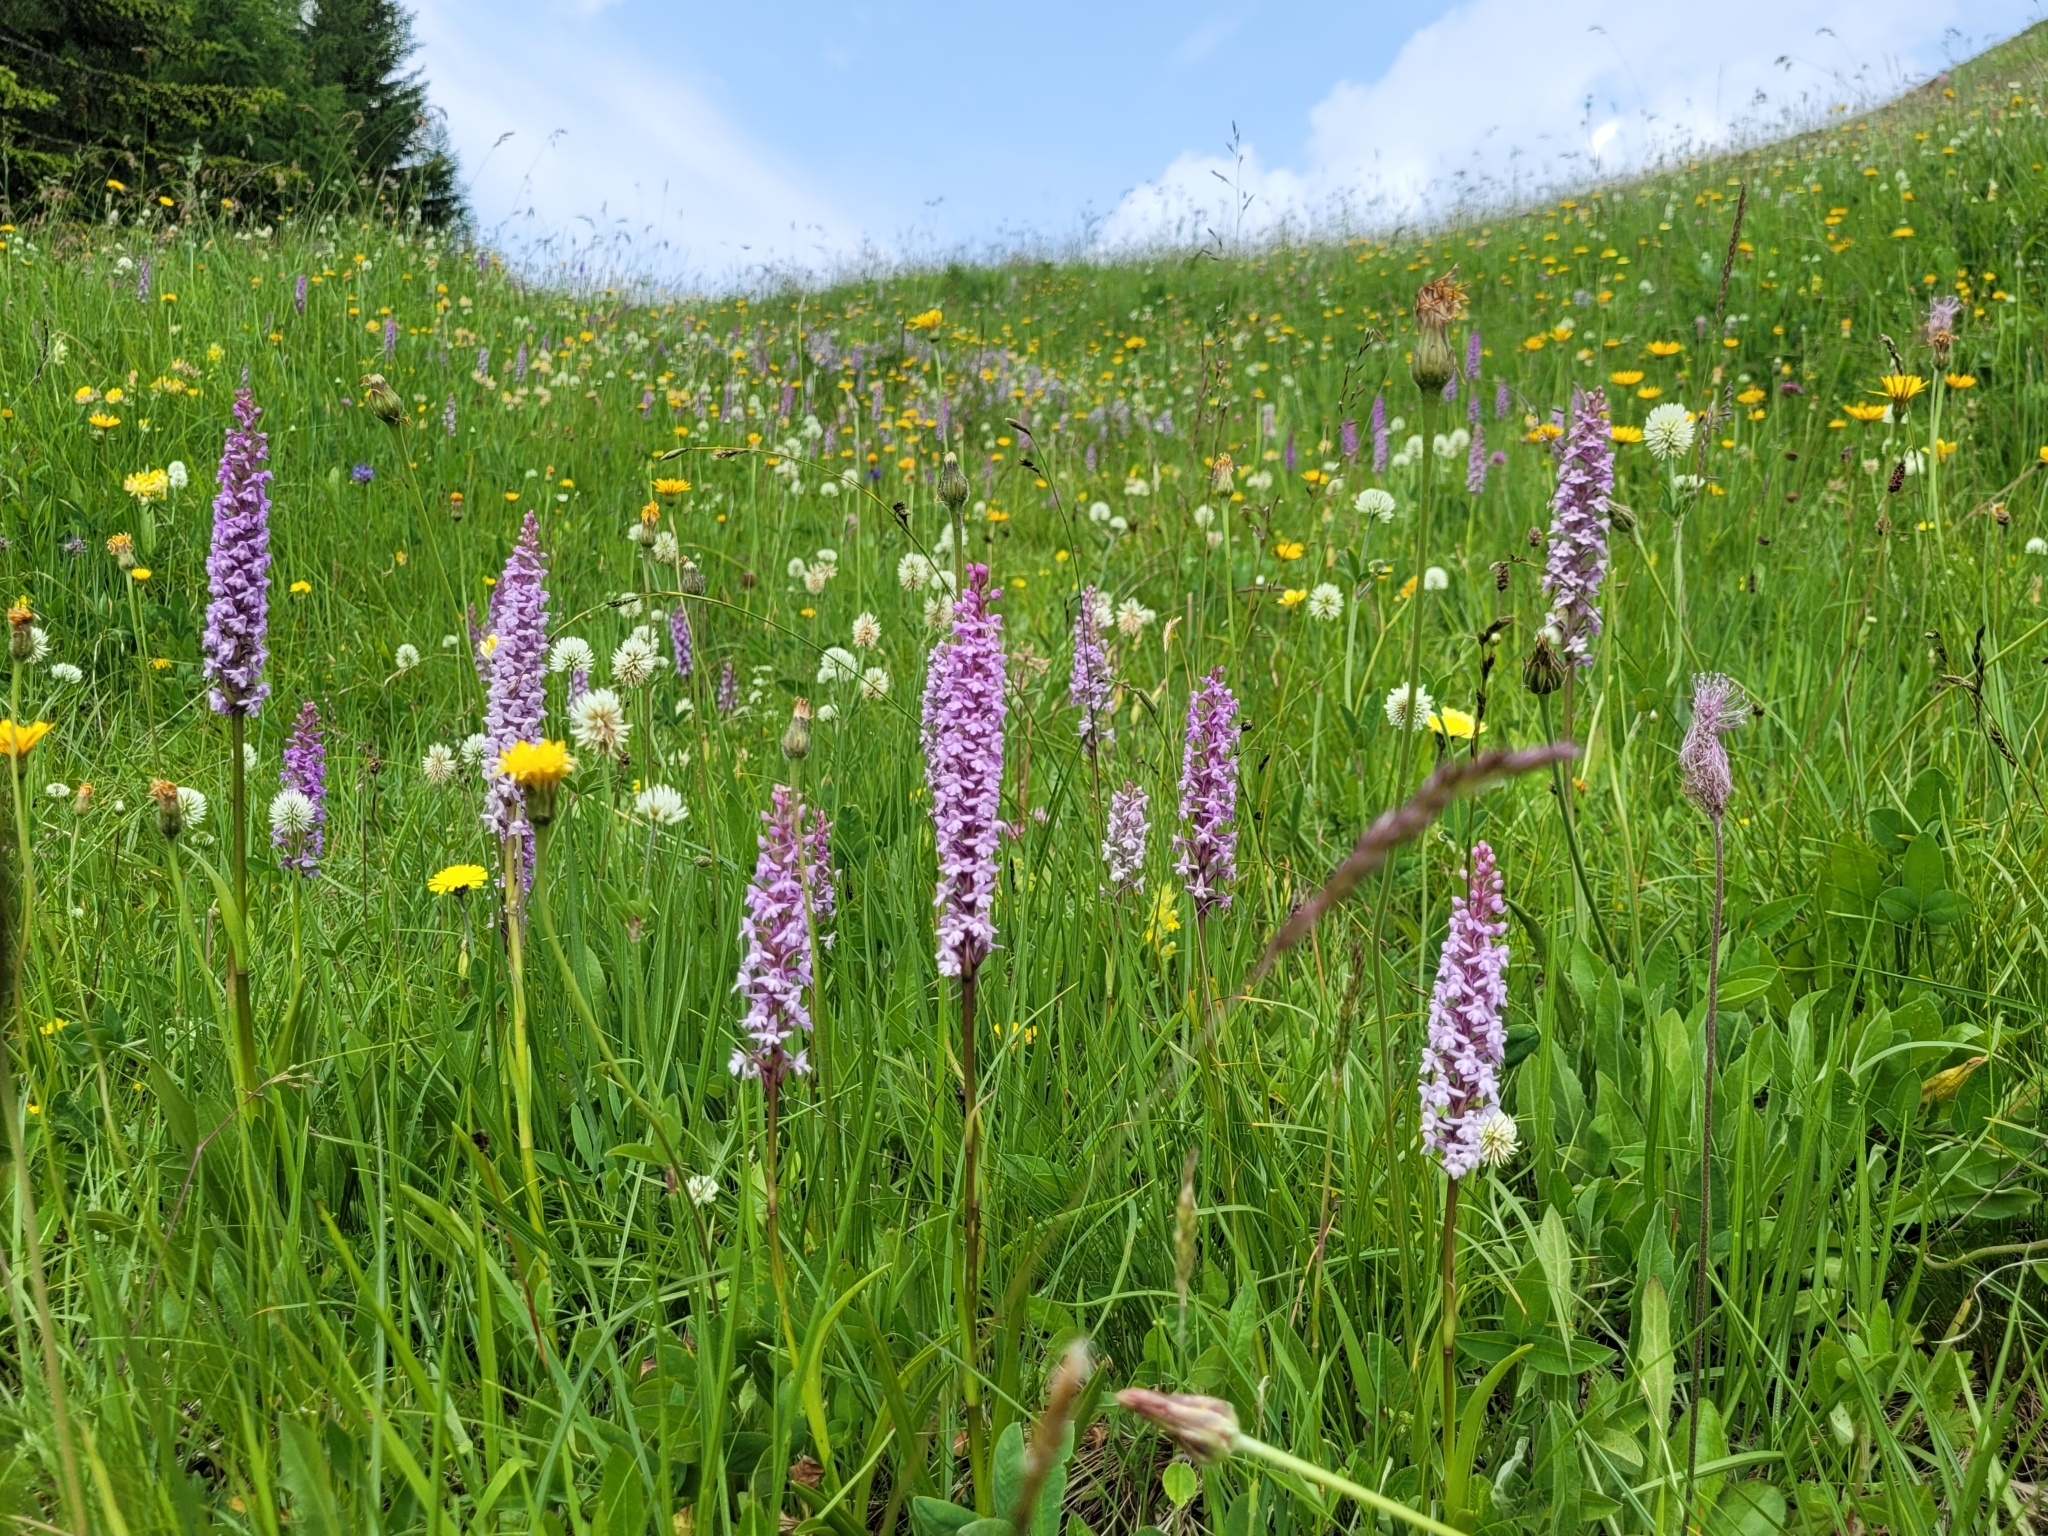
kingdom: Plantae
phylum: Tracheophyta
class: Liliopsida
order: Asparagales
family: Orchidaceae
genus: Gymnadenia
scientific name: Gymnadenia conopsea
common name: Fragrant orchid
